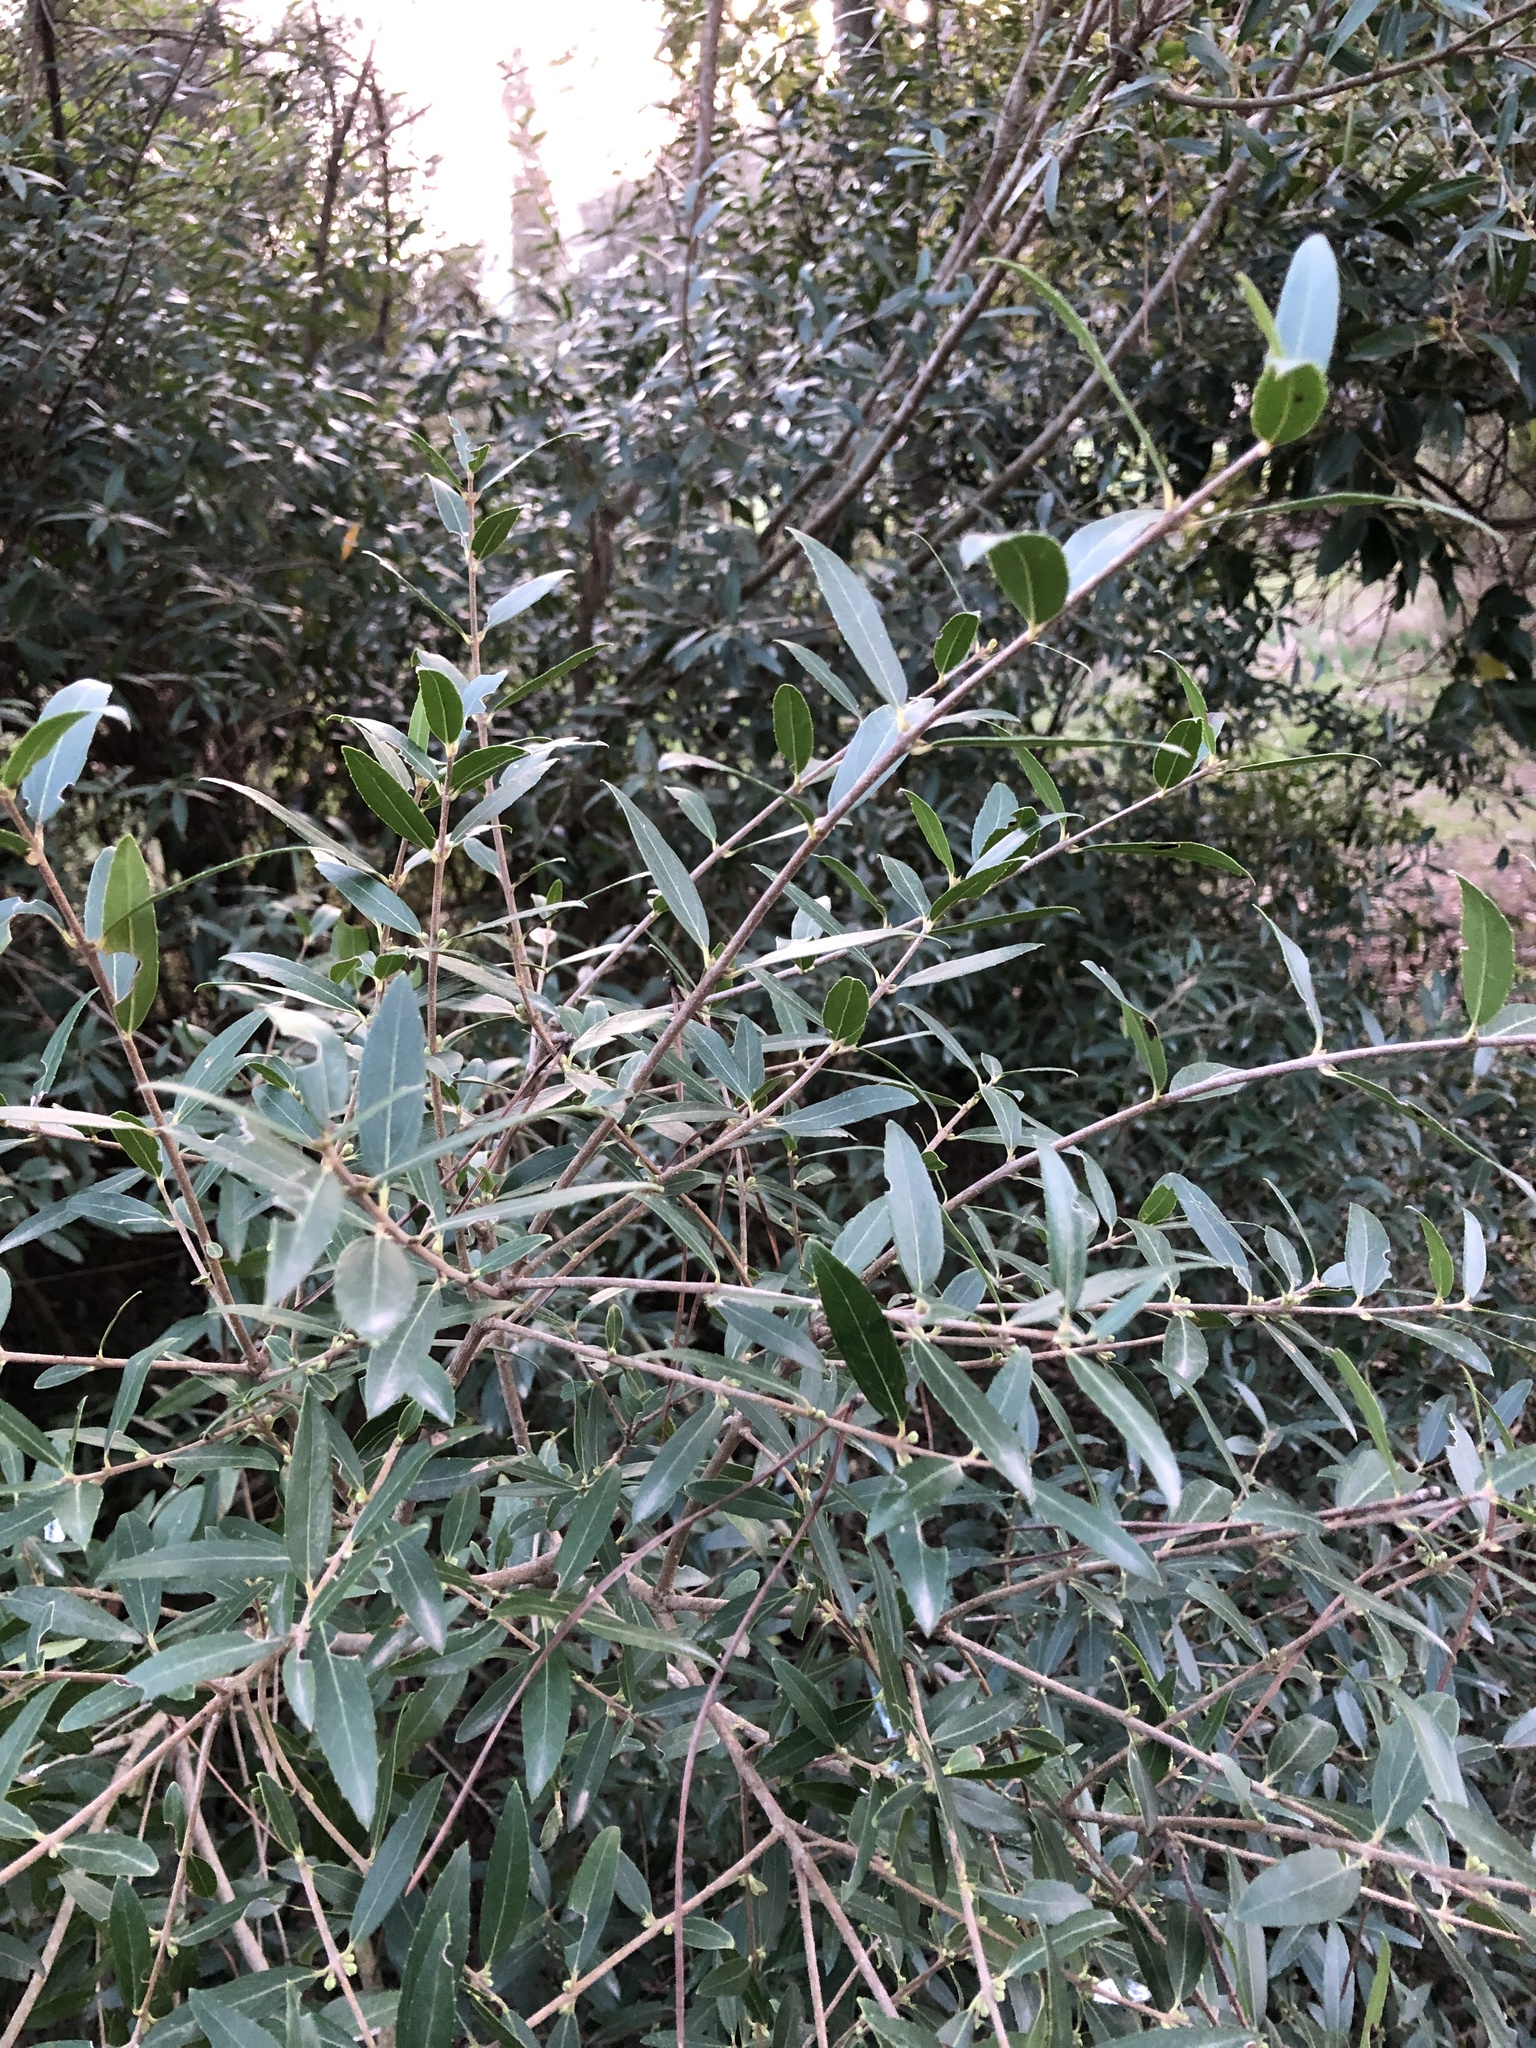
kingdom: Plantae
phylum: Tracheophyta
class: Magnoliopsida
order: Lamiales
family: Oleaceae
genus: Phillyrea
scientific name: Phillyrea angustifolia
